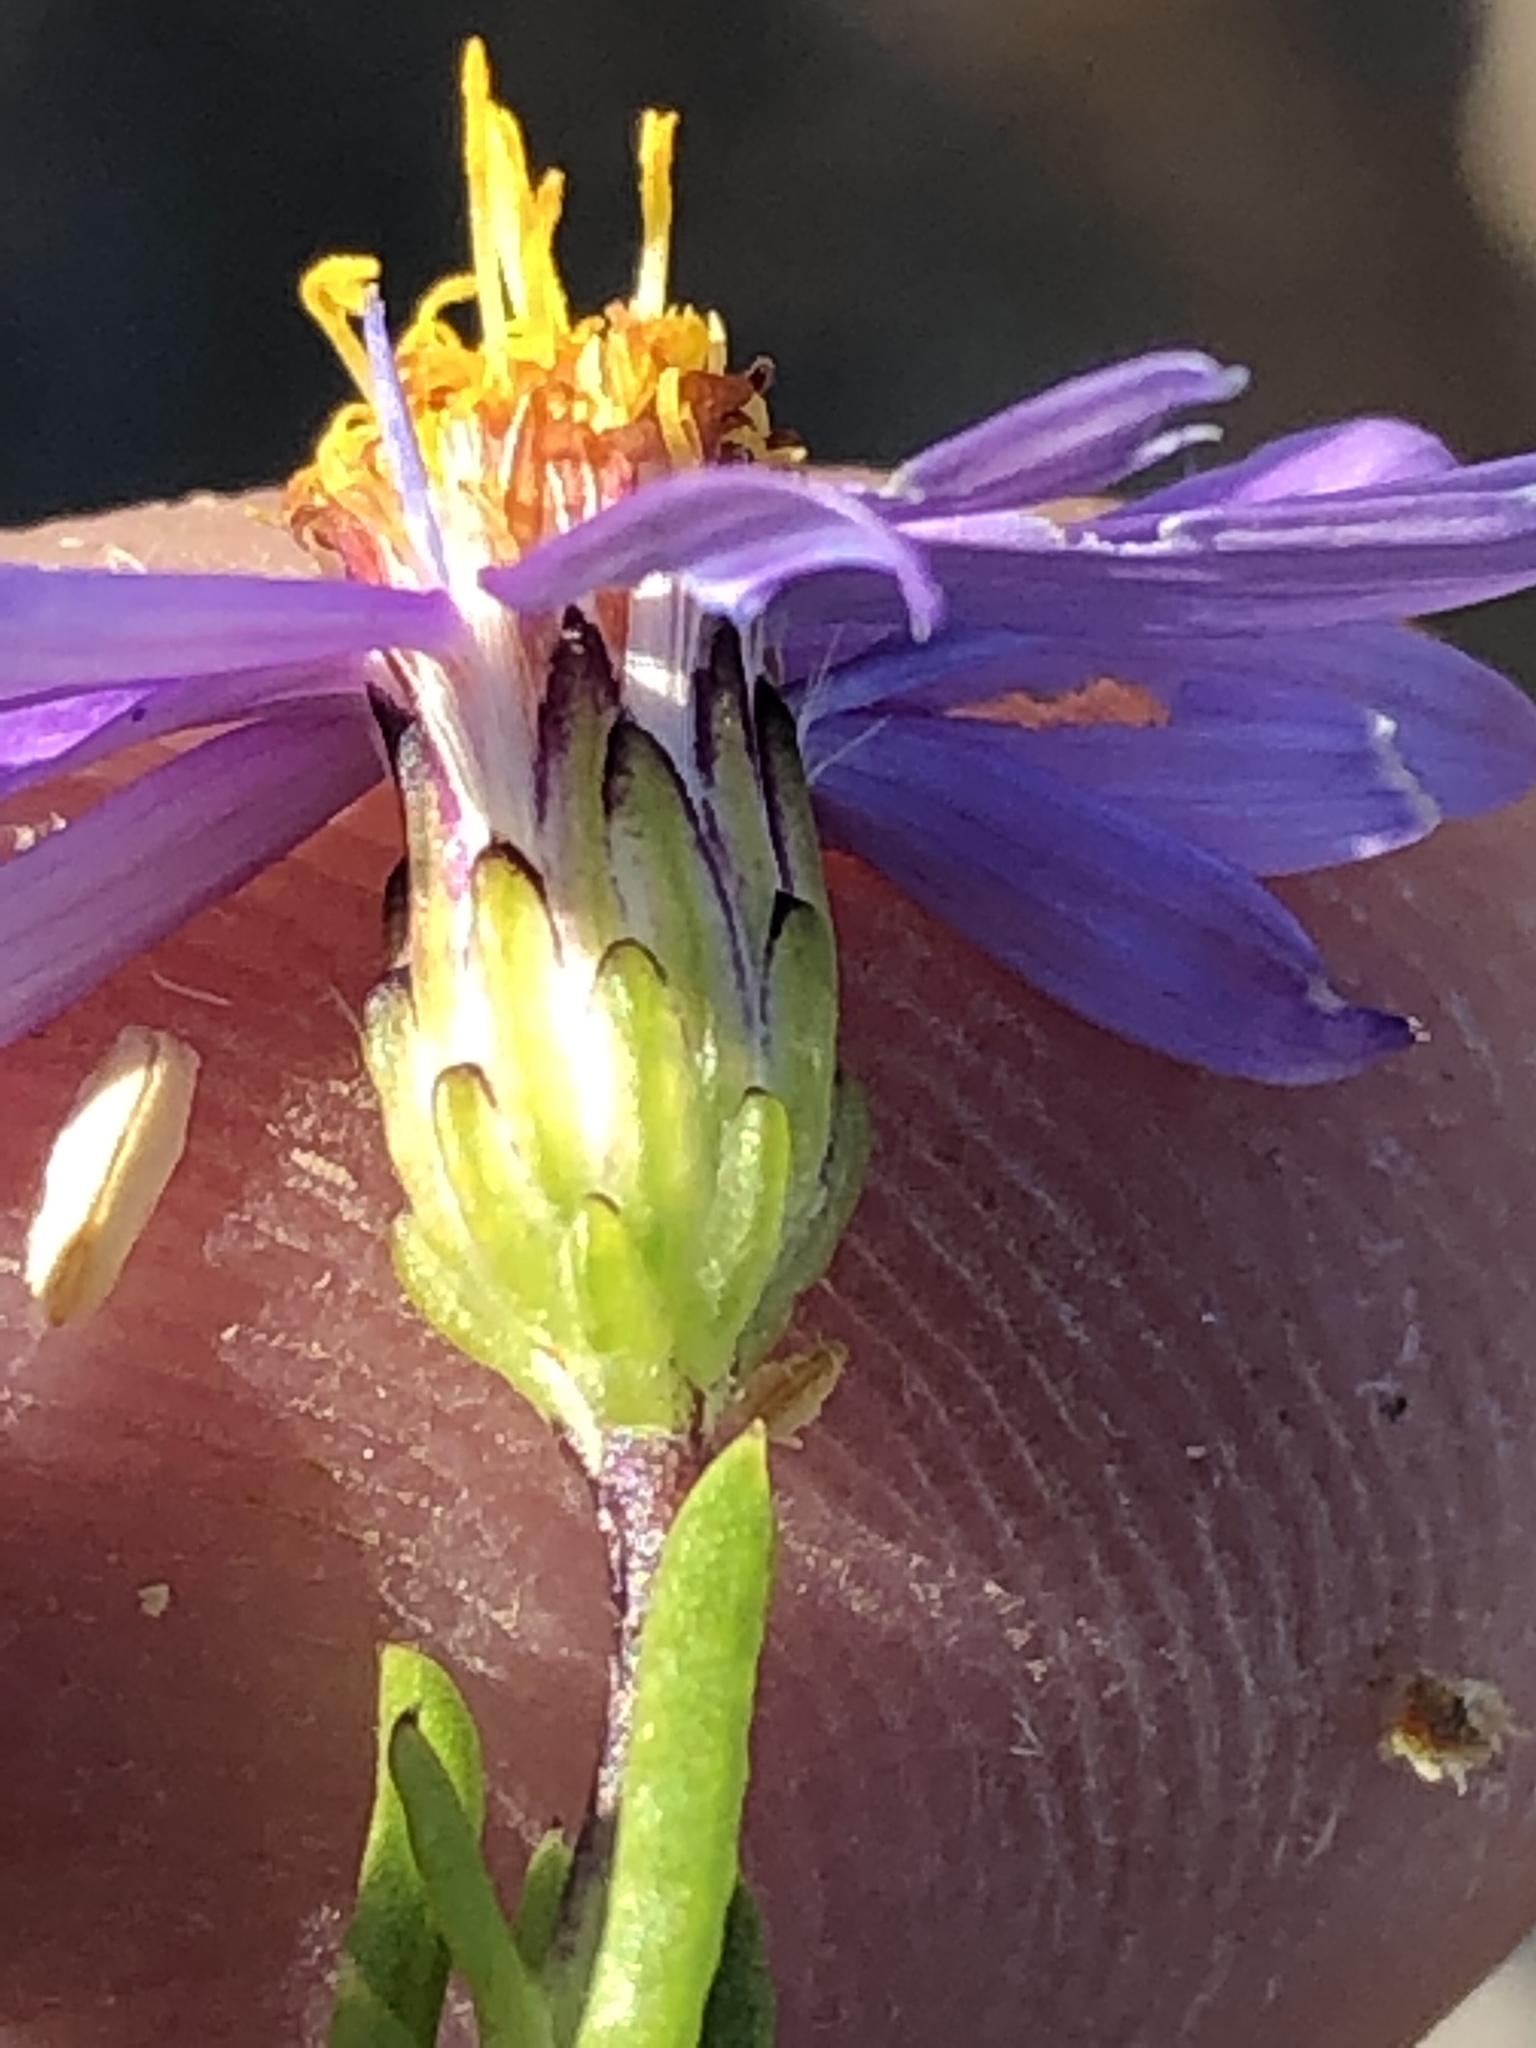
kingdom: Plantae
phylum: Tracheophyta
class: Magnoliopsida
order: Asterales
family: Asteraceae
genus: Felicia
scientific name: Felicia filifolia
